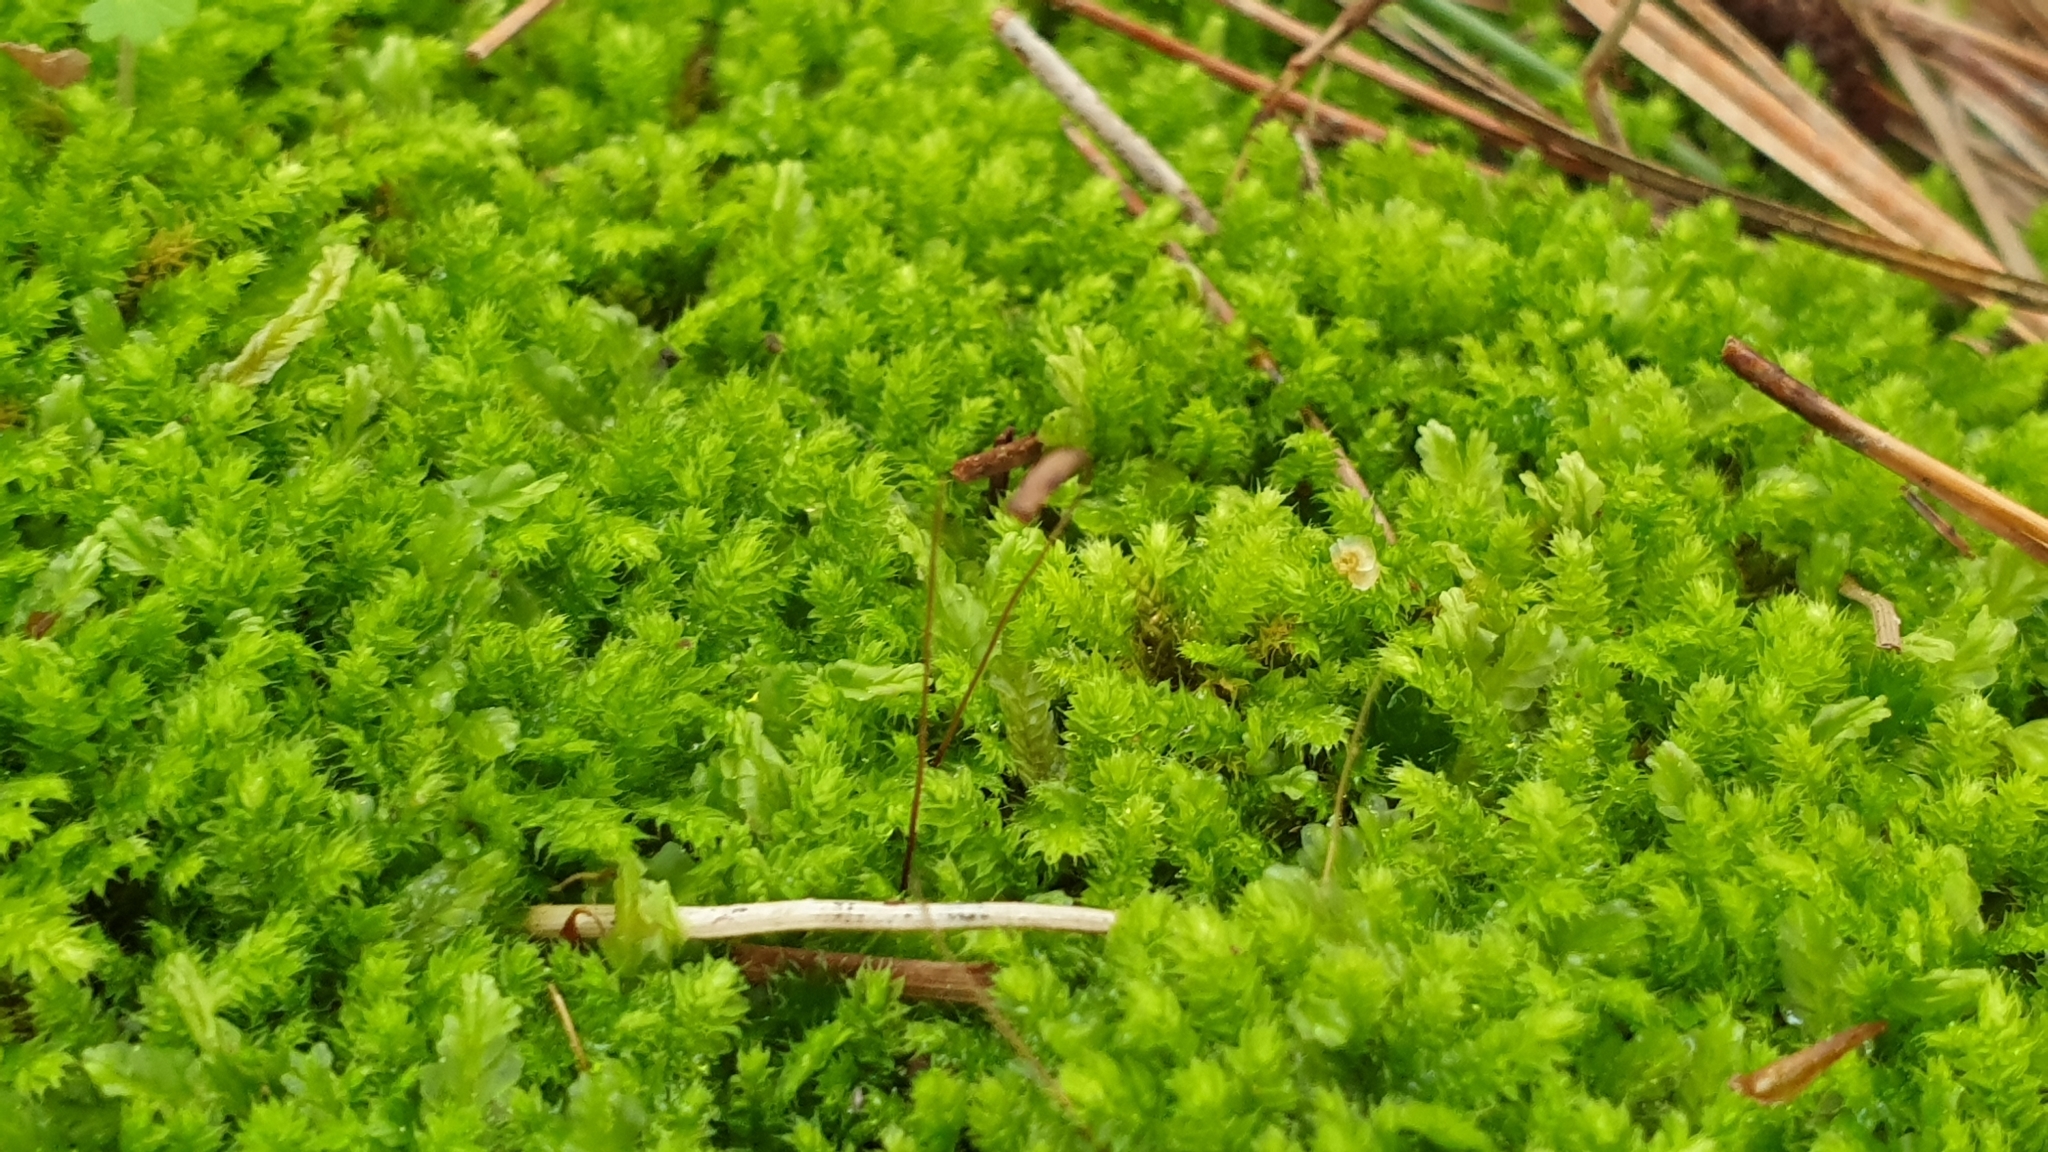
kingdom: Plantae
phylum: Bryophyta
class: Bryopsida
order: Hypnodendrales
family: Racopilaceae
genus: Racopilum
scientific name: Racopilum cuspidigerum
